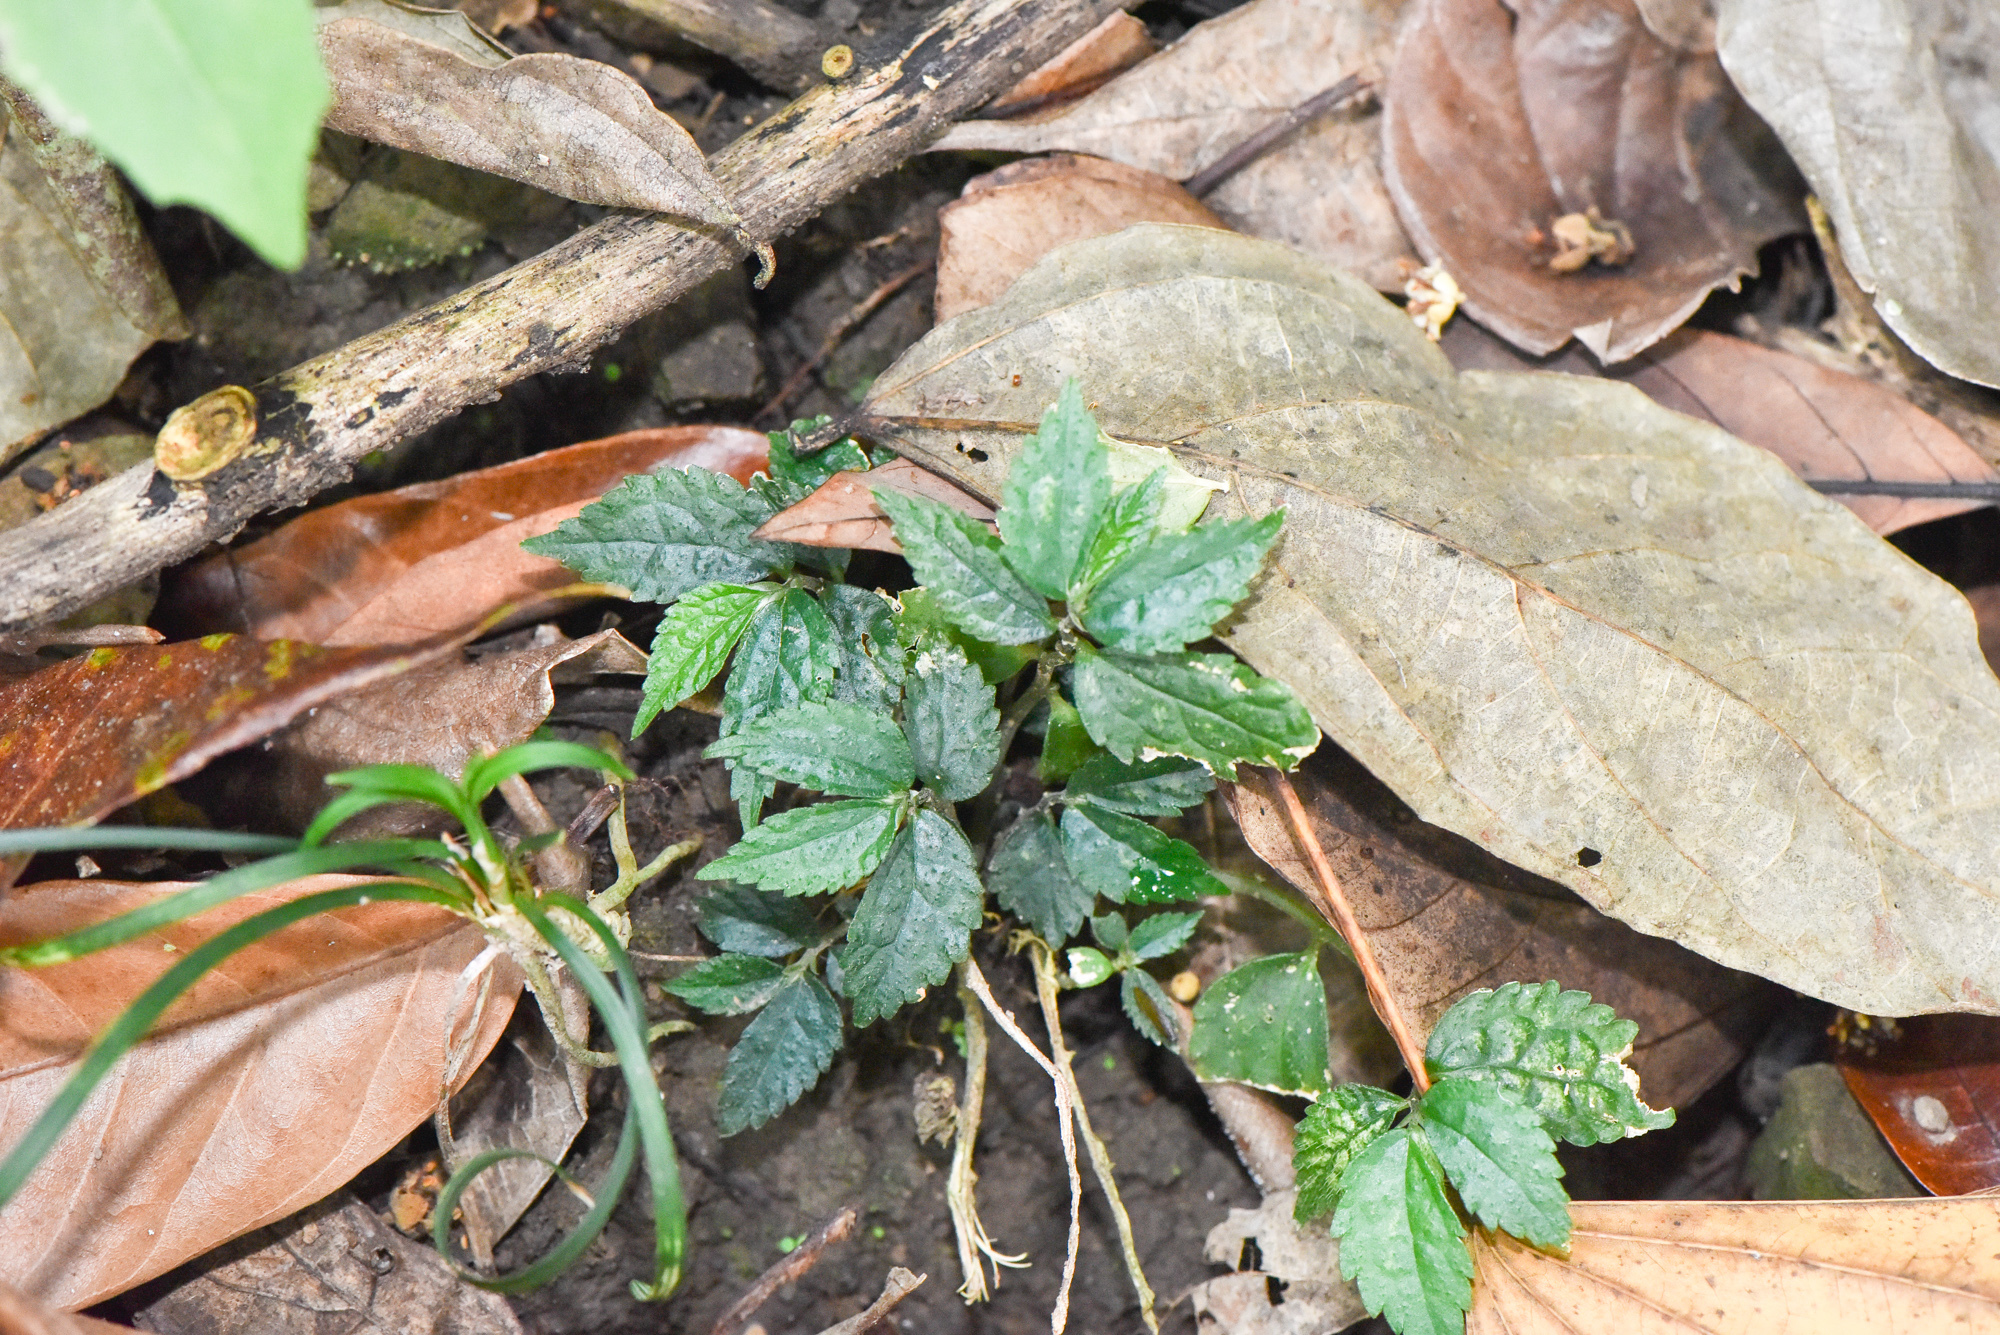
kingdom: Plantae
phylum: Tracheophyta
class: Magnoliopsida
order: Rosales
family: Urticaceae
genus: Elatostema
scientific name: Elatostema radicans
